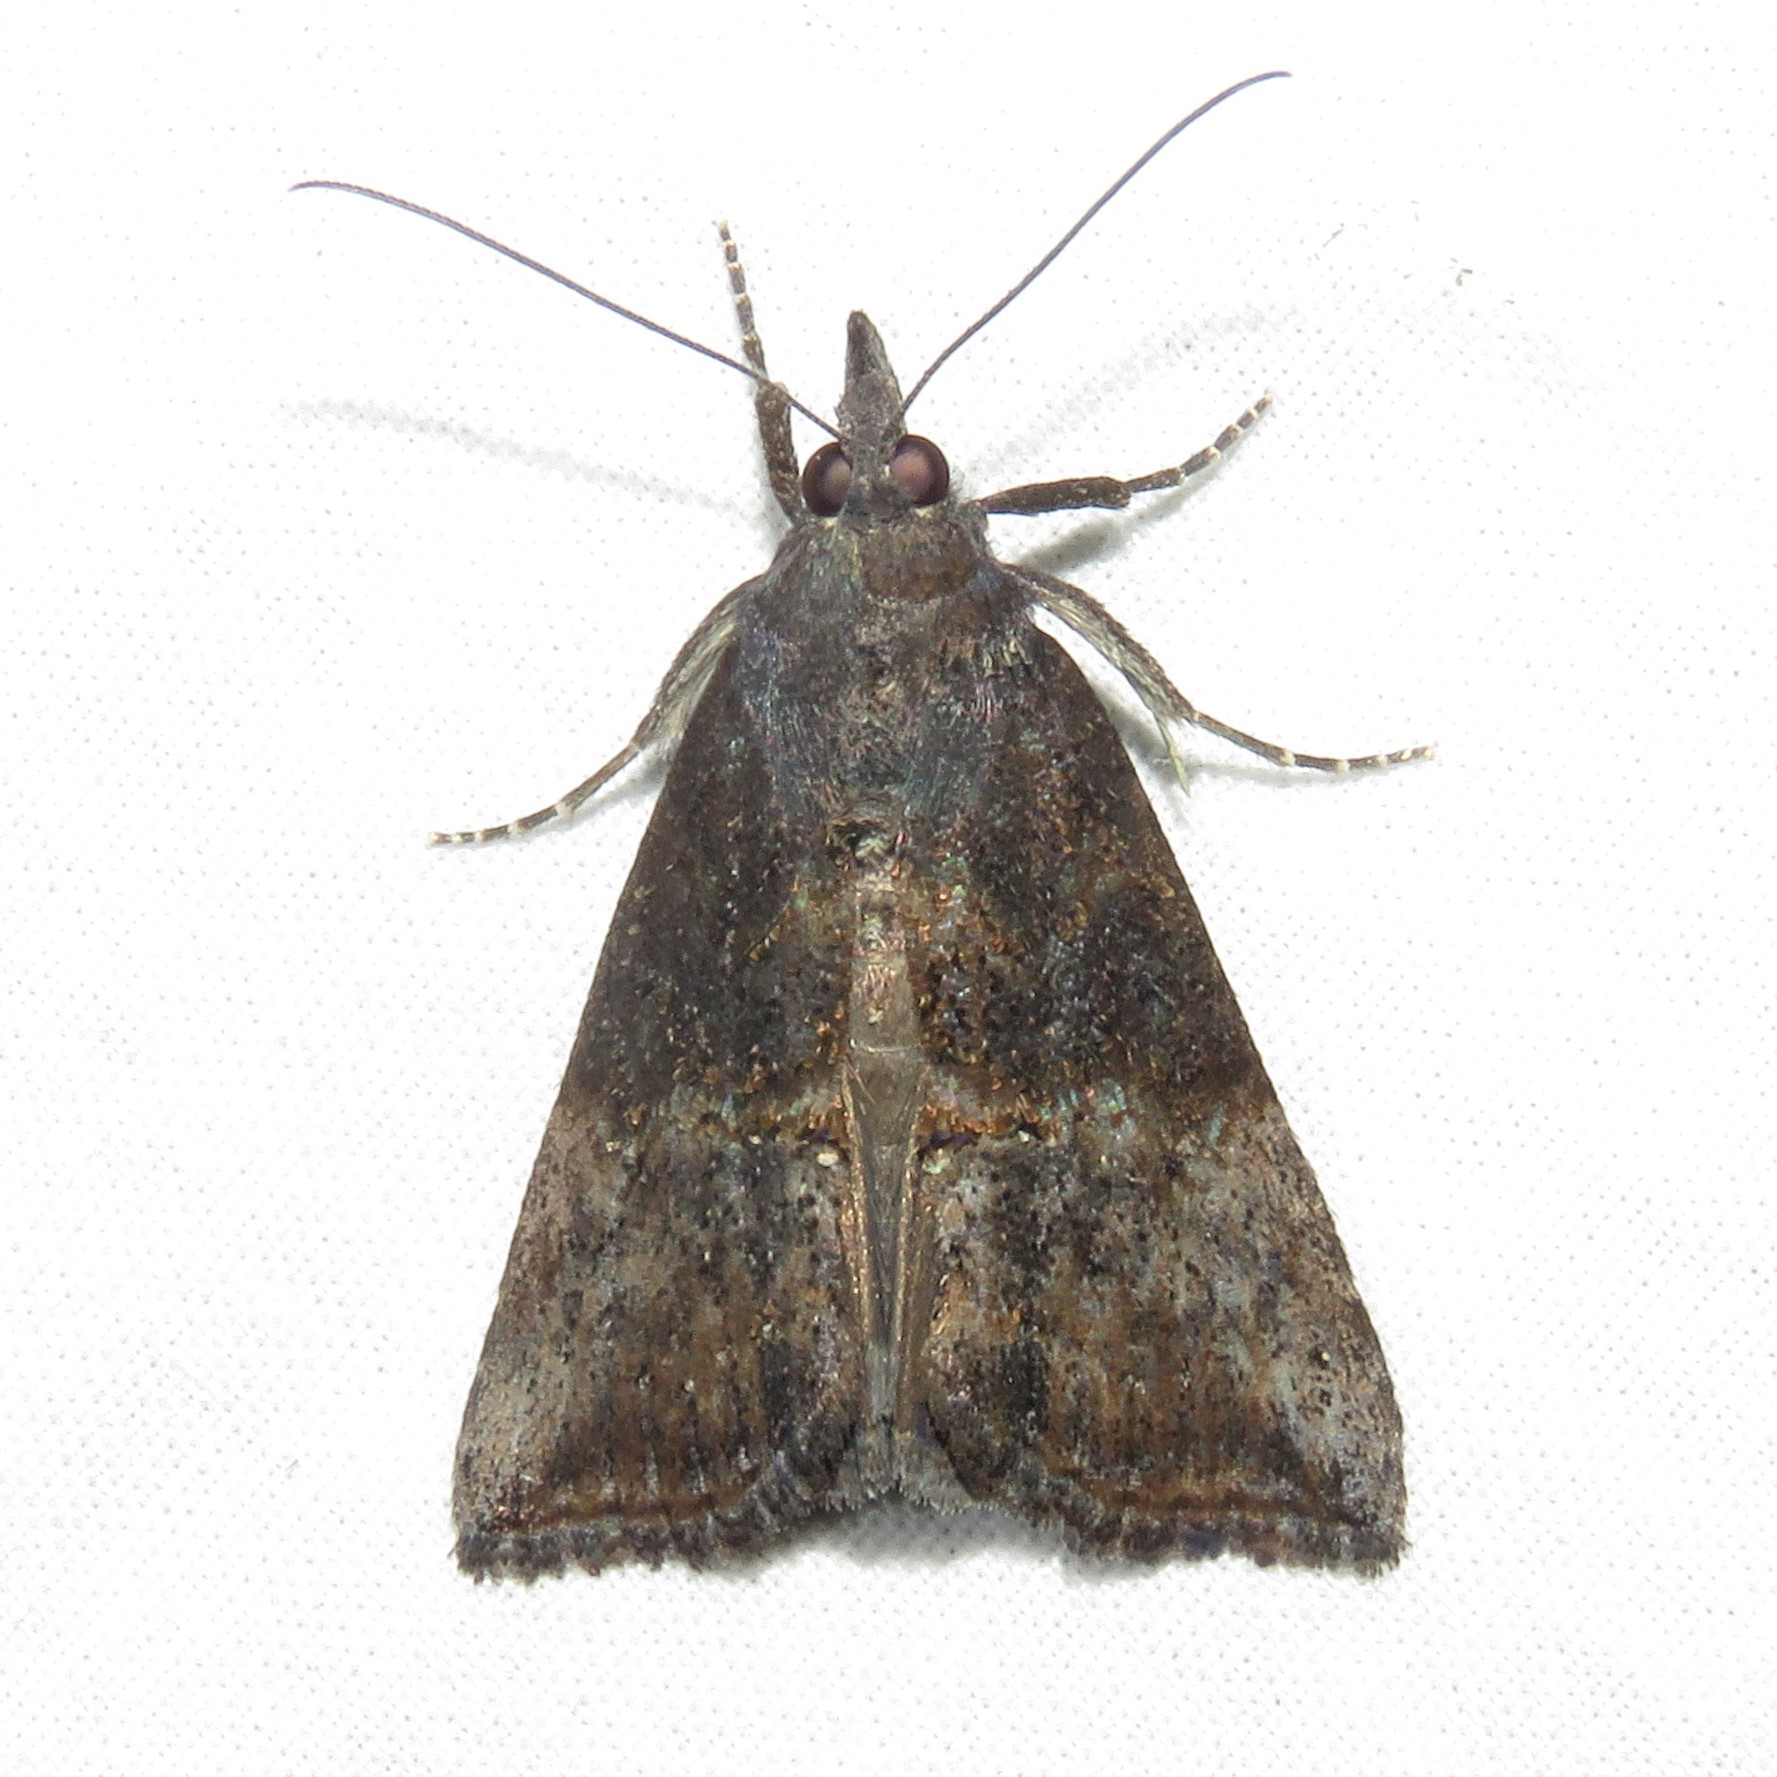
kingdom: Animalia
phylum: Arthropoda
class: Insecta
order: Lepidoptera
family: Erebidae
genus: Hypena
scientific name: Hypena scabra
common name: Green cloverworm
